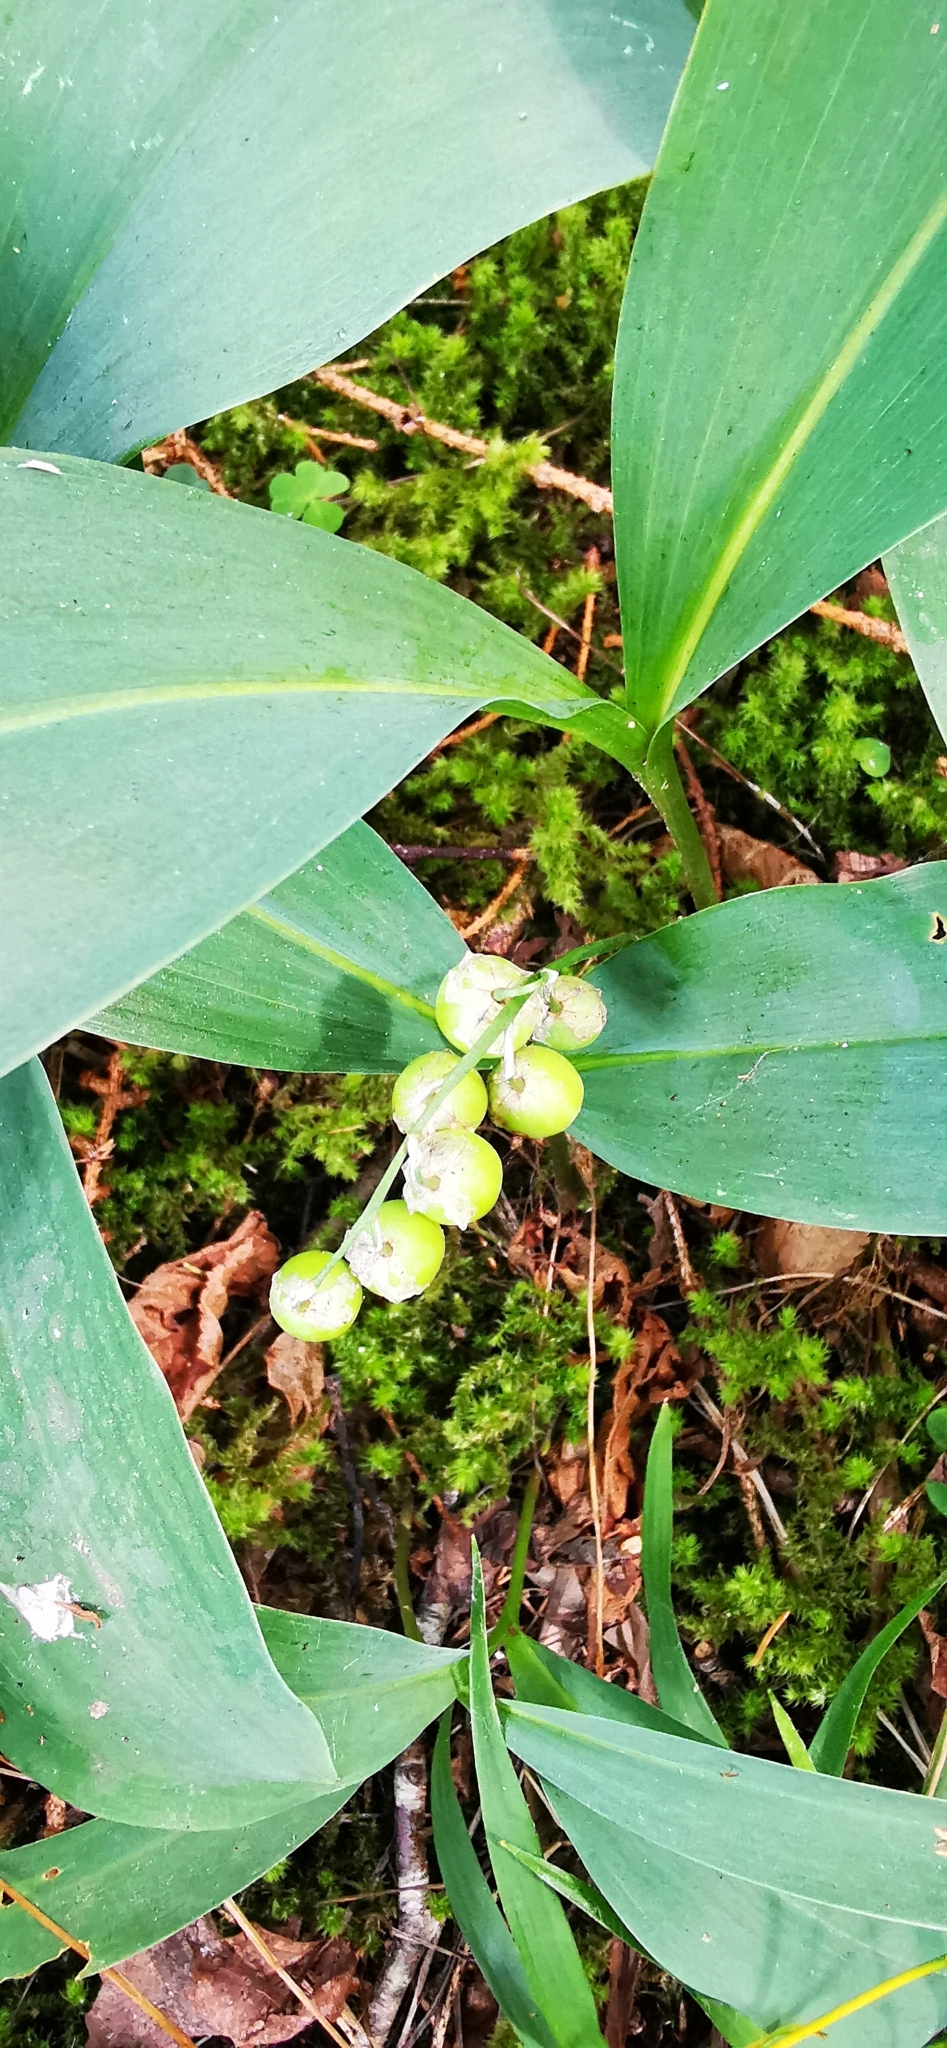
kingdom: Plantae
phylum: Tracheophyta
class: Liliopsida
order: Asparagales
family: Asparagaceae
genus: Convallaria
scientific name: Convallaria majalis
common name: Lily-of-the-valley
